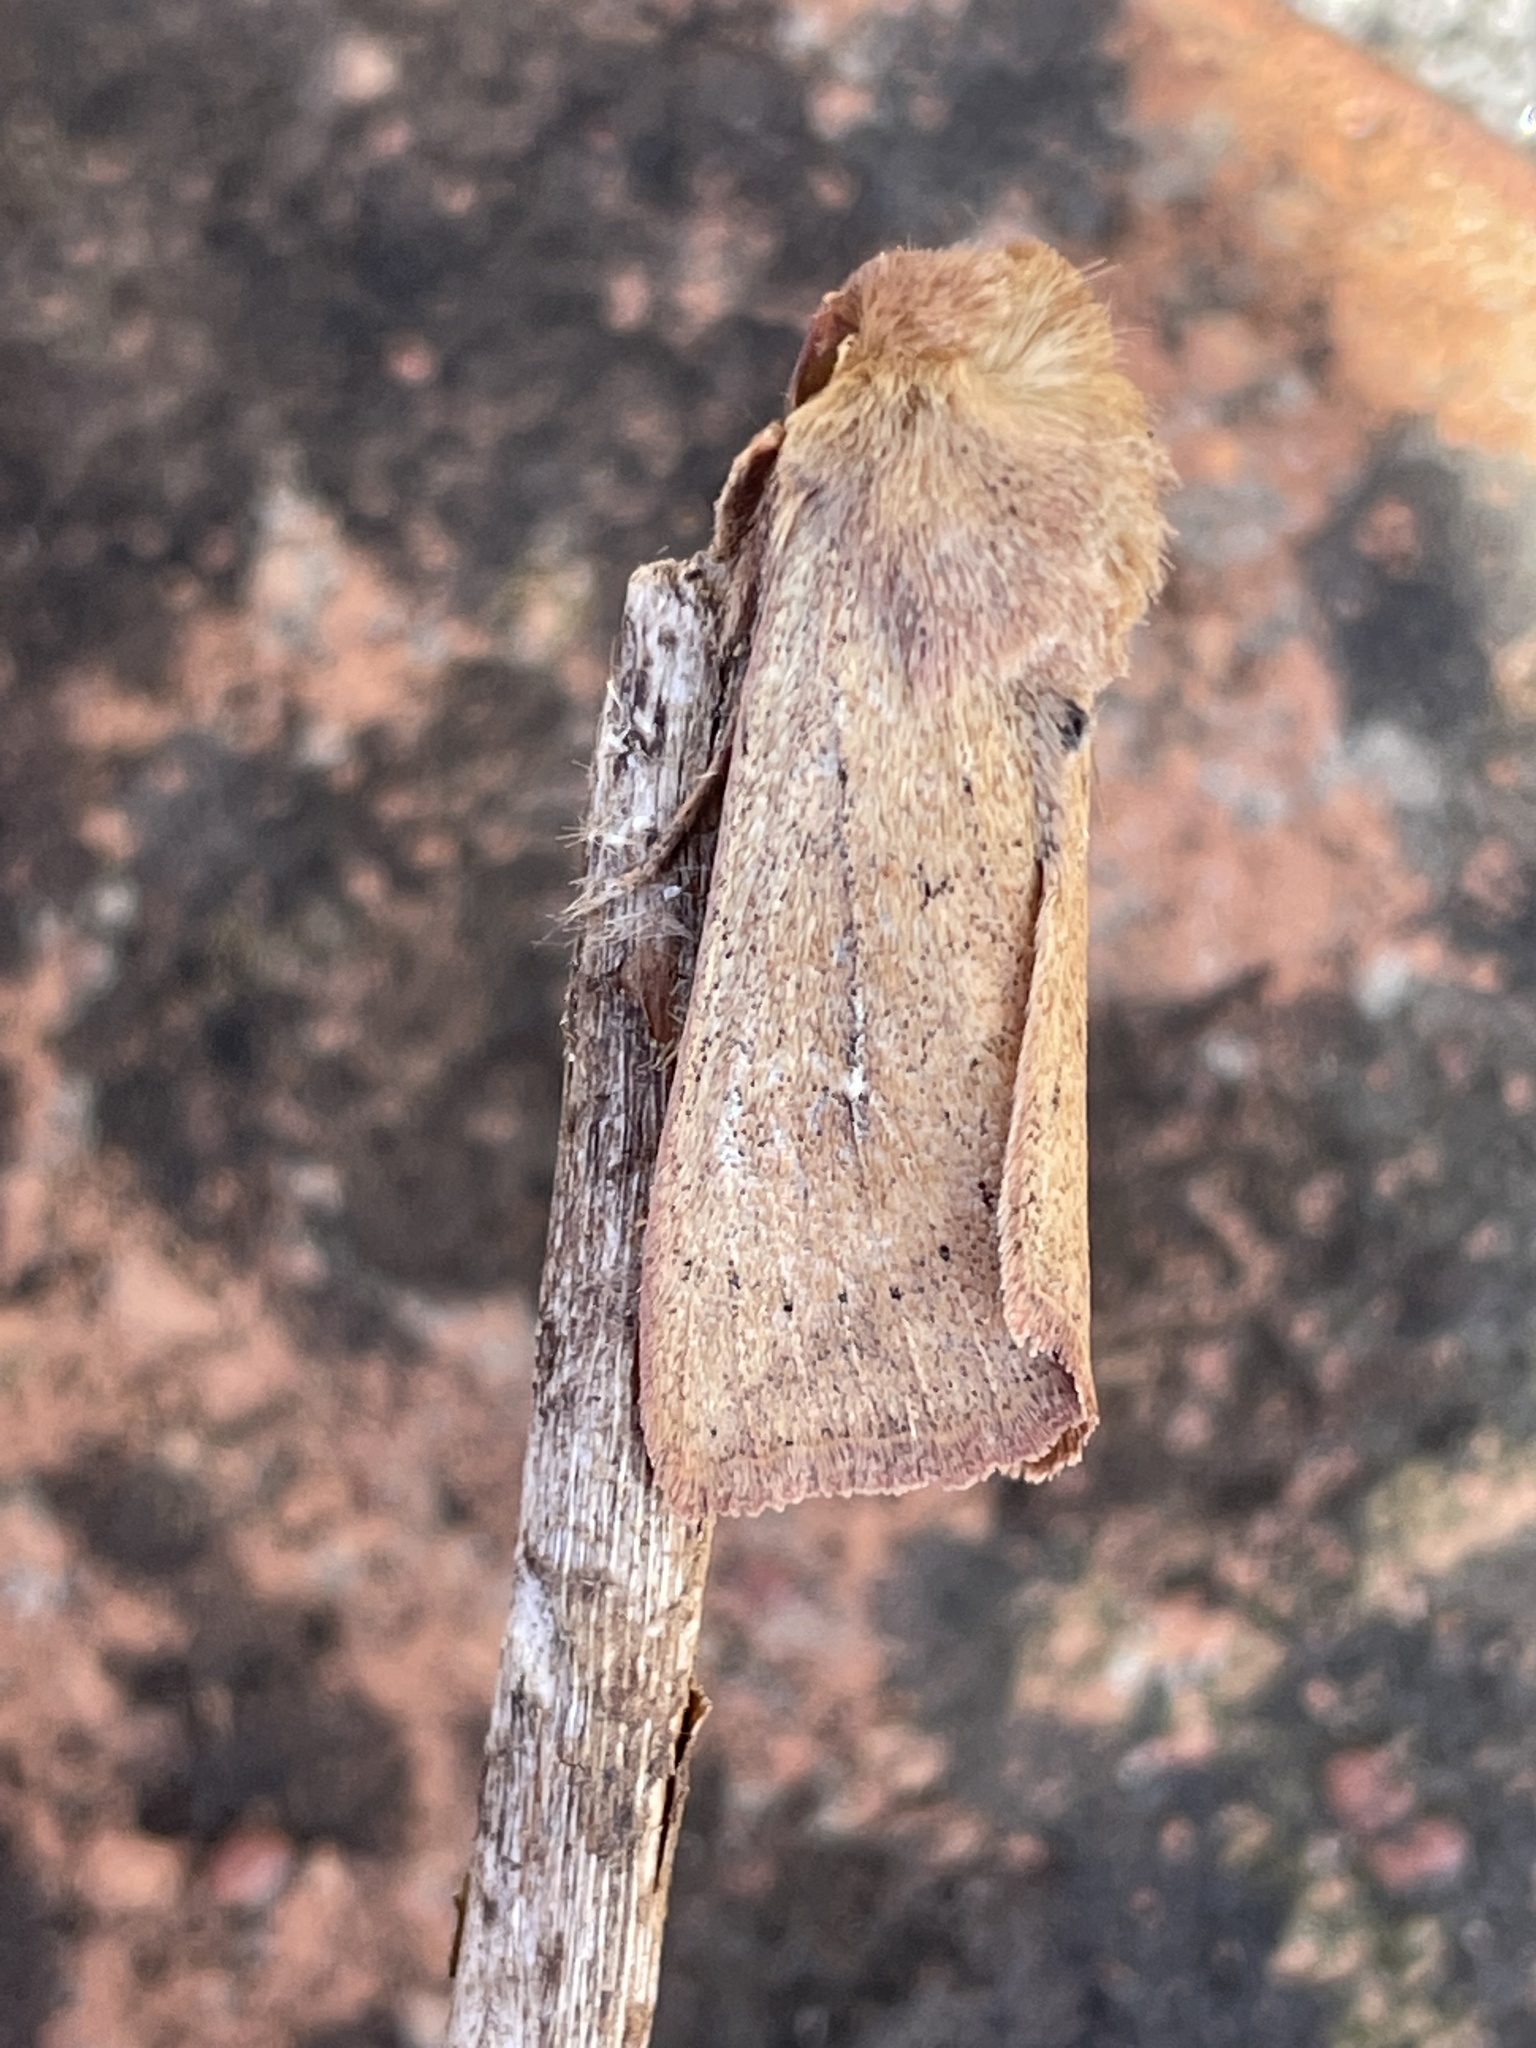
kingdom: Animalia
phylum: Arthropoda
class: Insecta
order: Lepidoptera
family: Noctuidae
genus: Mythimna
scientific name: Mythimna ferrago
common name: Clay
